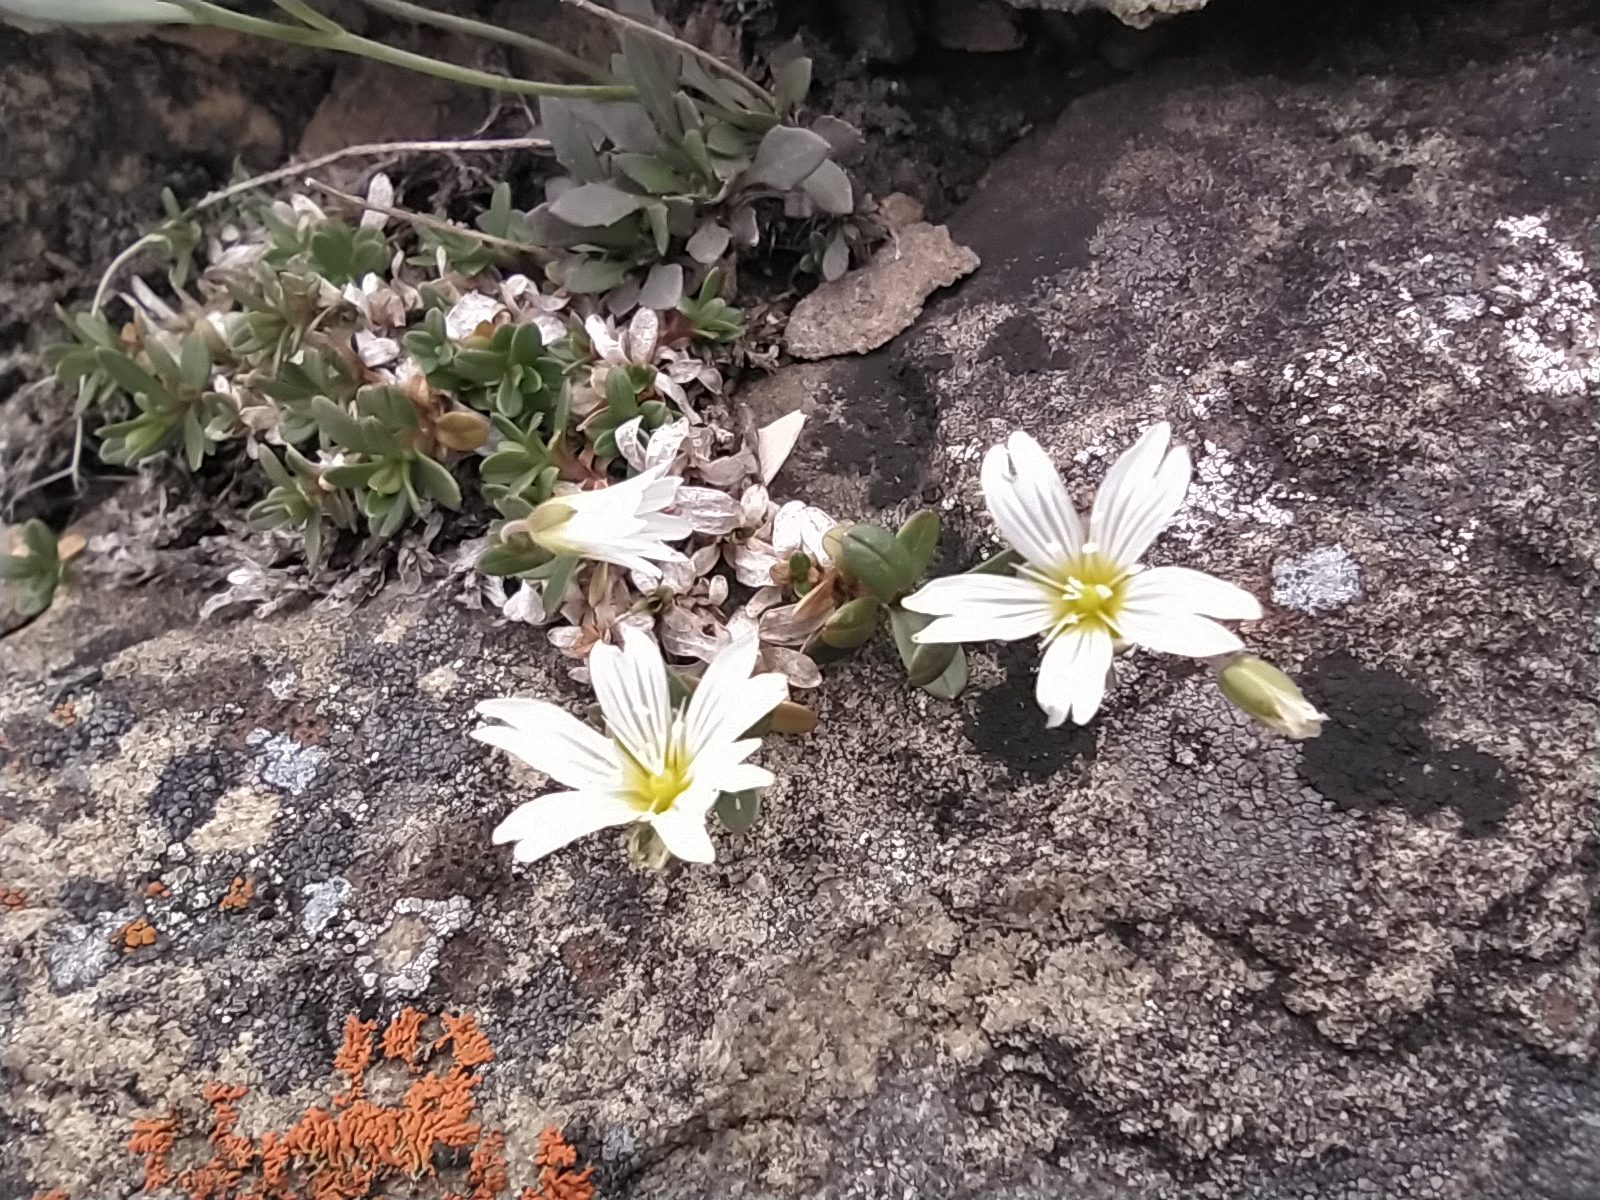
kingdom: Plantae
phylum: Tracheophyta
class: Magnoliopsida
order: Caryophyllales
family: Caryophyllaceae
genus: Cerastium
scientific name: Cerastium igoschiniae
